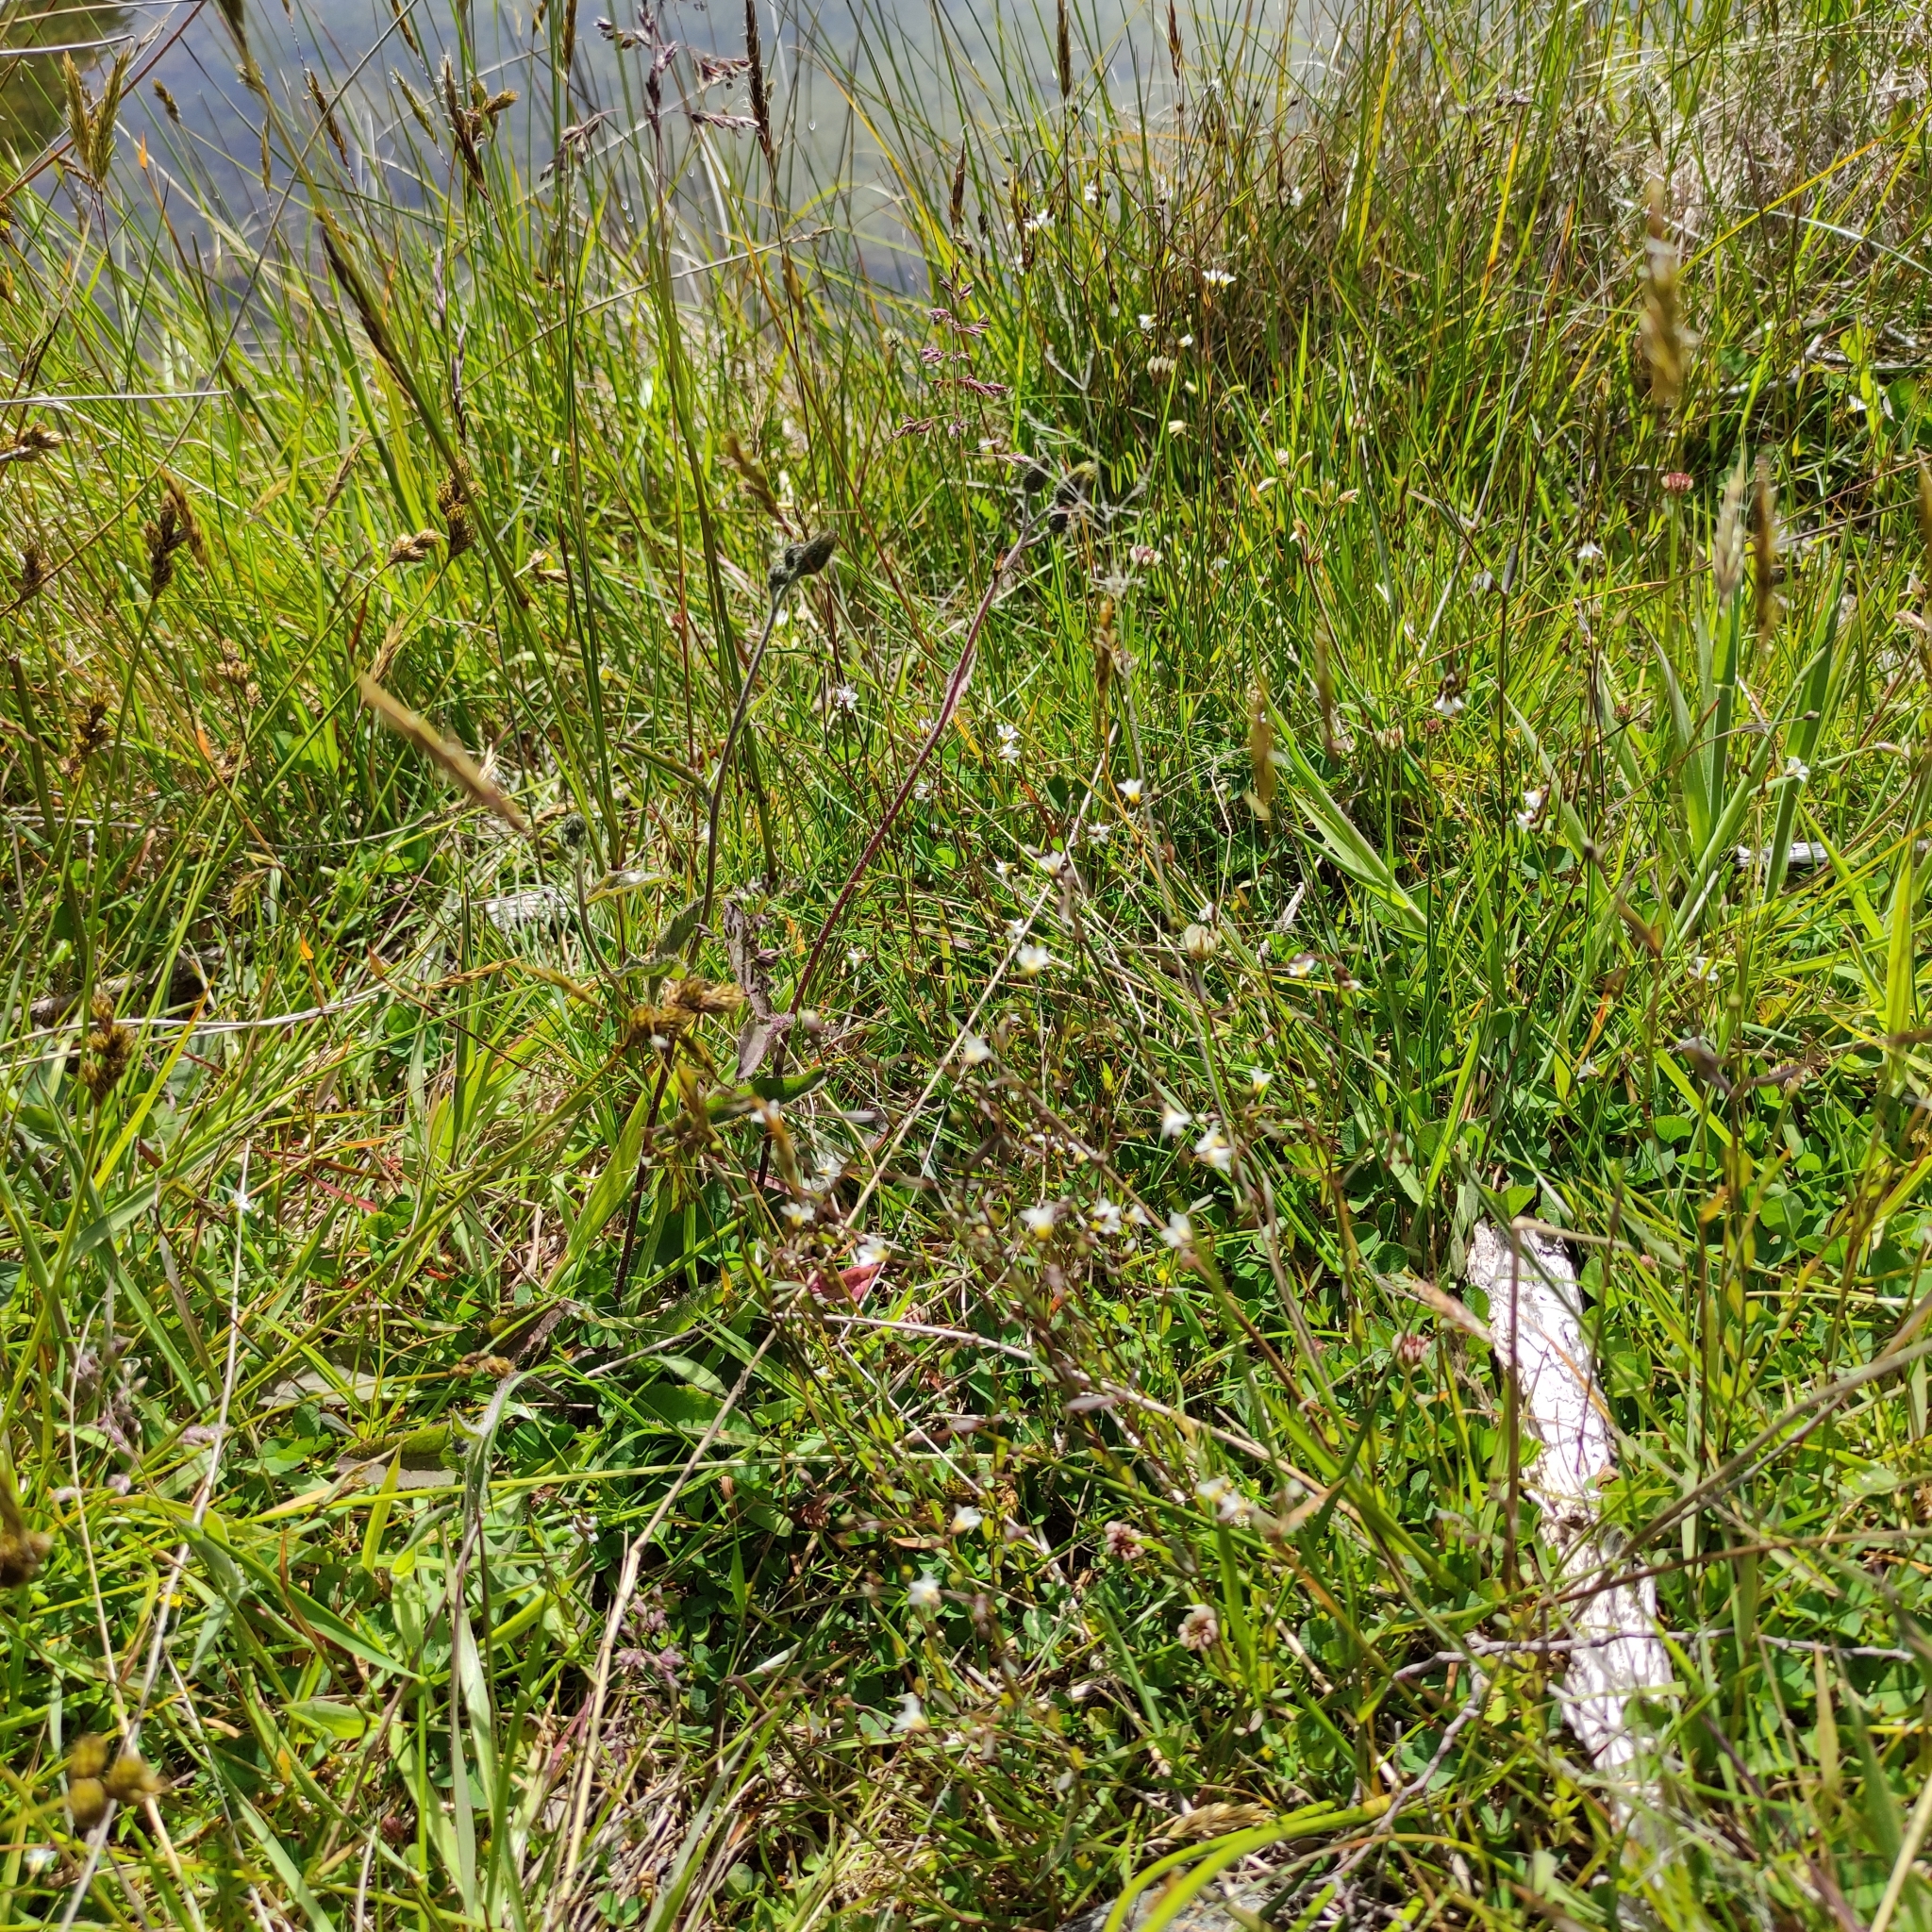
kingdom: Plantae
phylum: Tracheophyta
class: Magnoliopsida
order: Malpighiales
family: Linaceae
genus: Linum
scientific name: Linum catharticum
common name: Fairy flax
